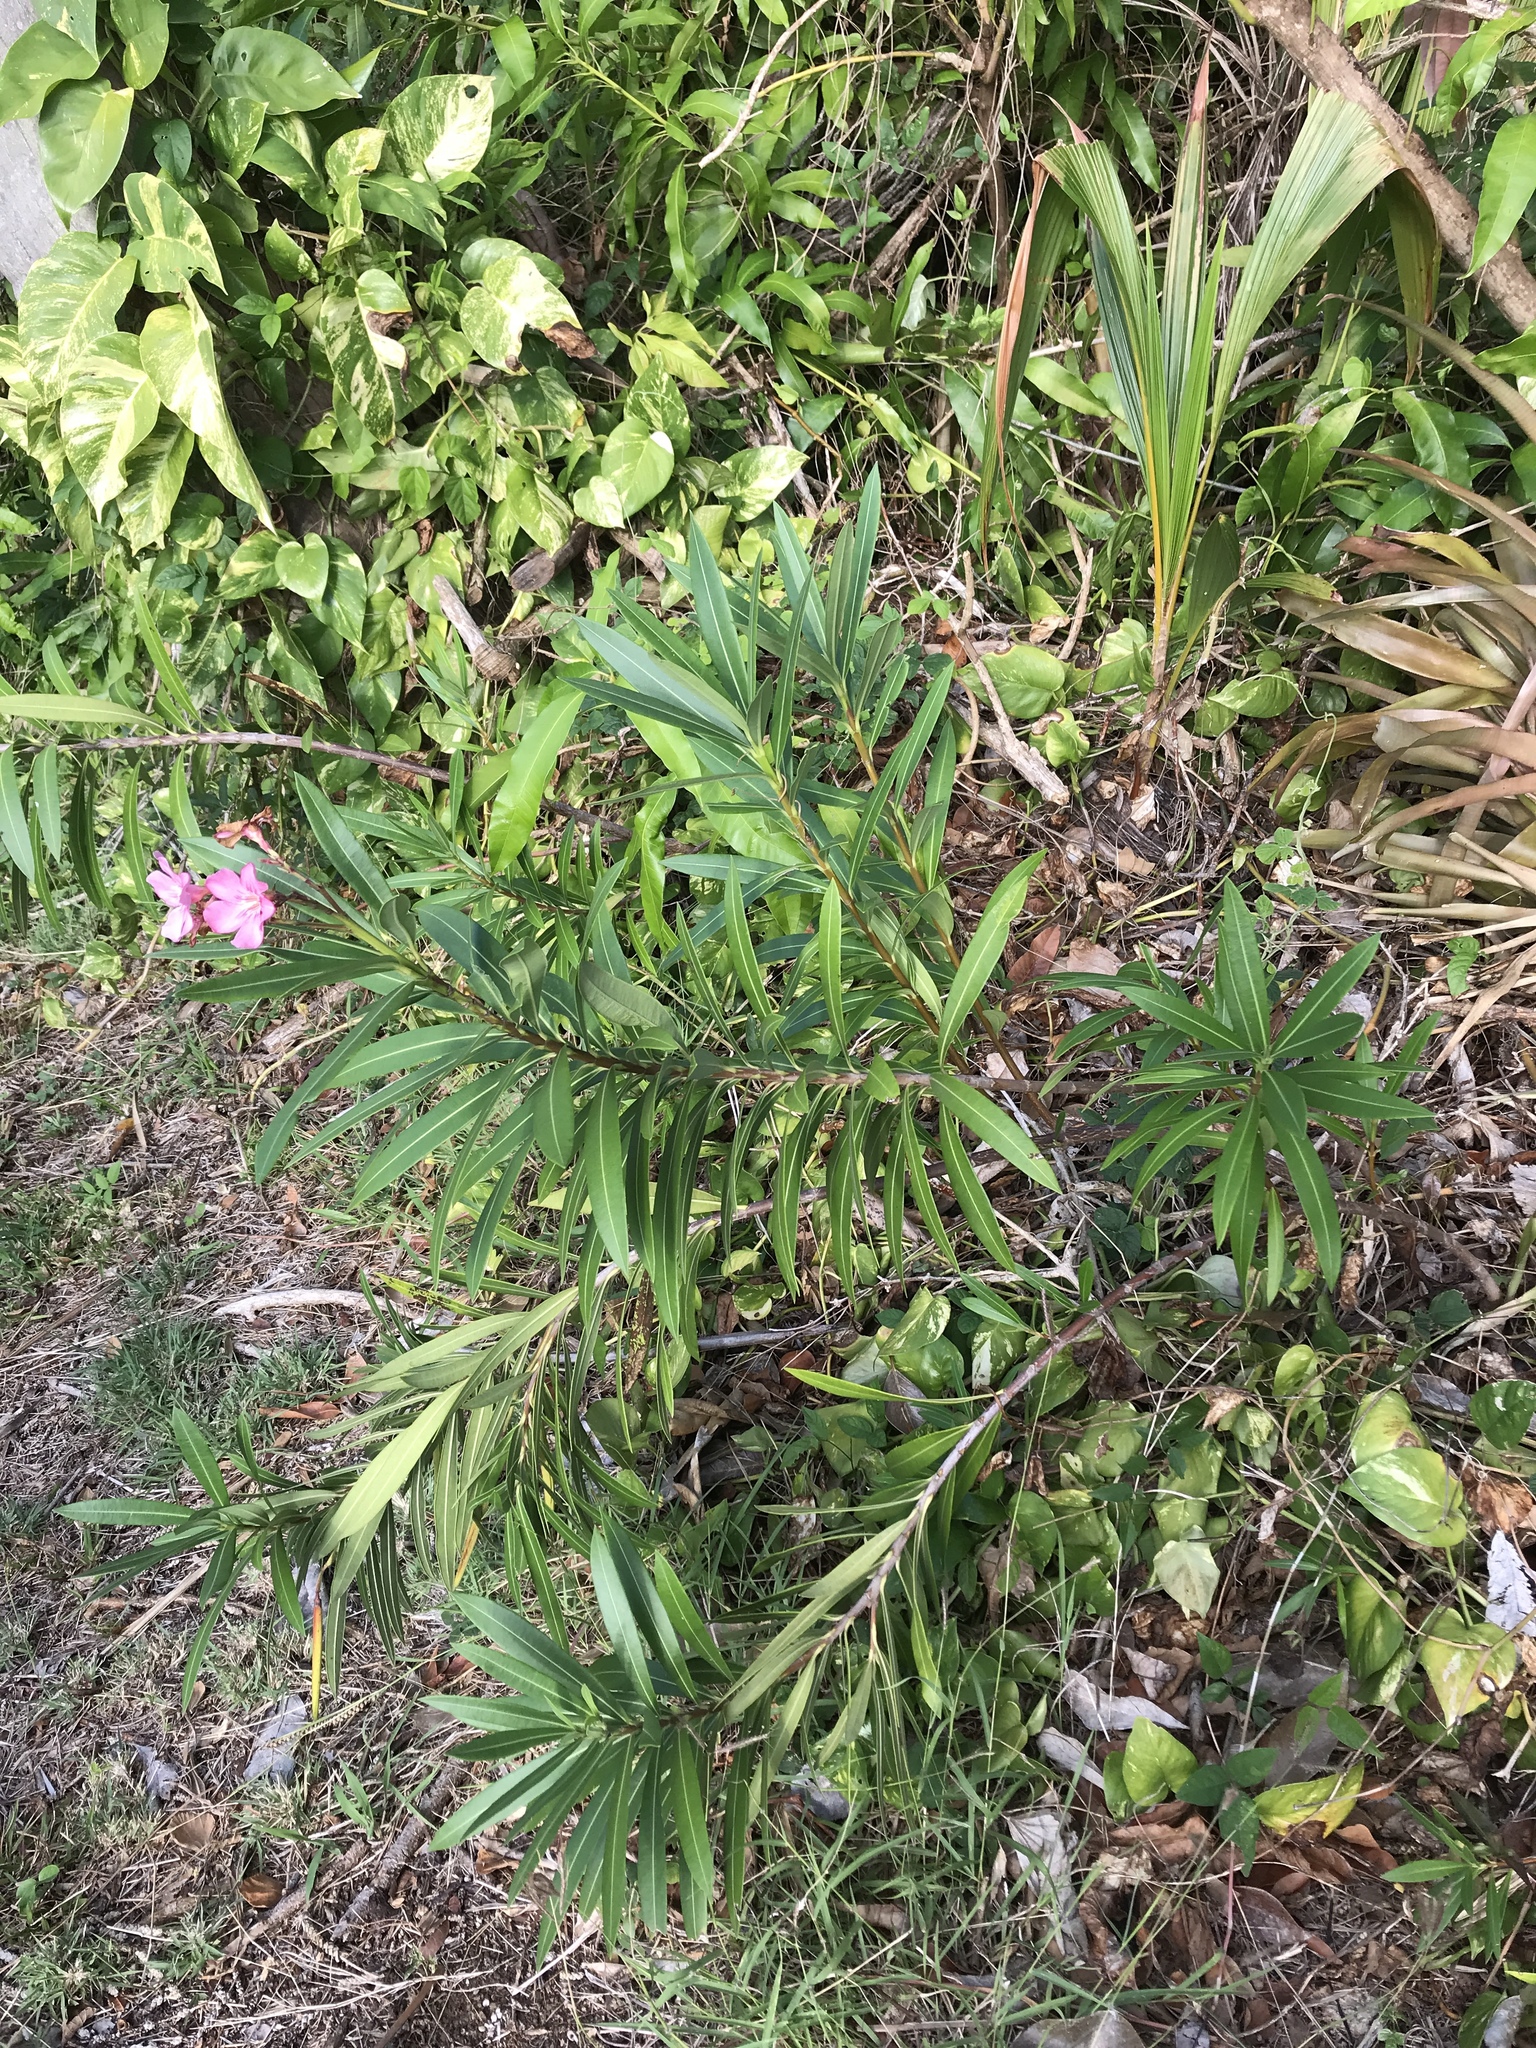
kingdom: Plantae
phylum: Tracheophyta
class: Magnoliopsida
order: Gentianales
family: Apocynaceae
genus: Nerium
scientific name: Nerium oleander
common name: Oleander
